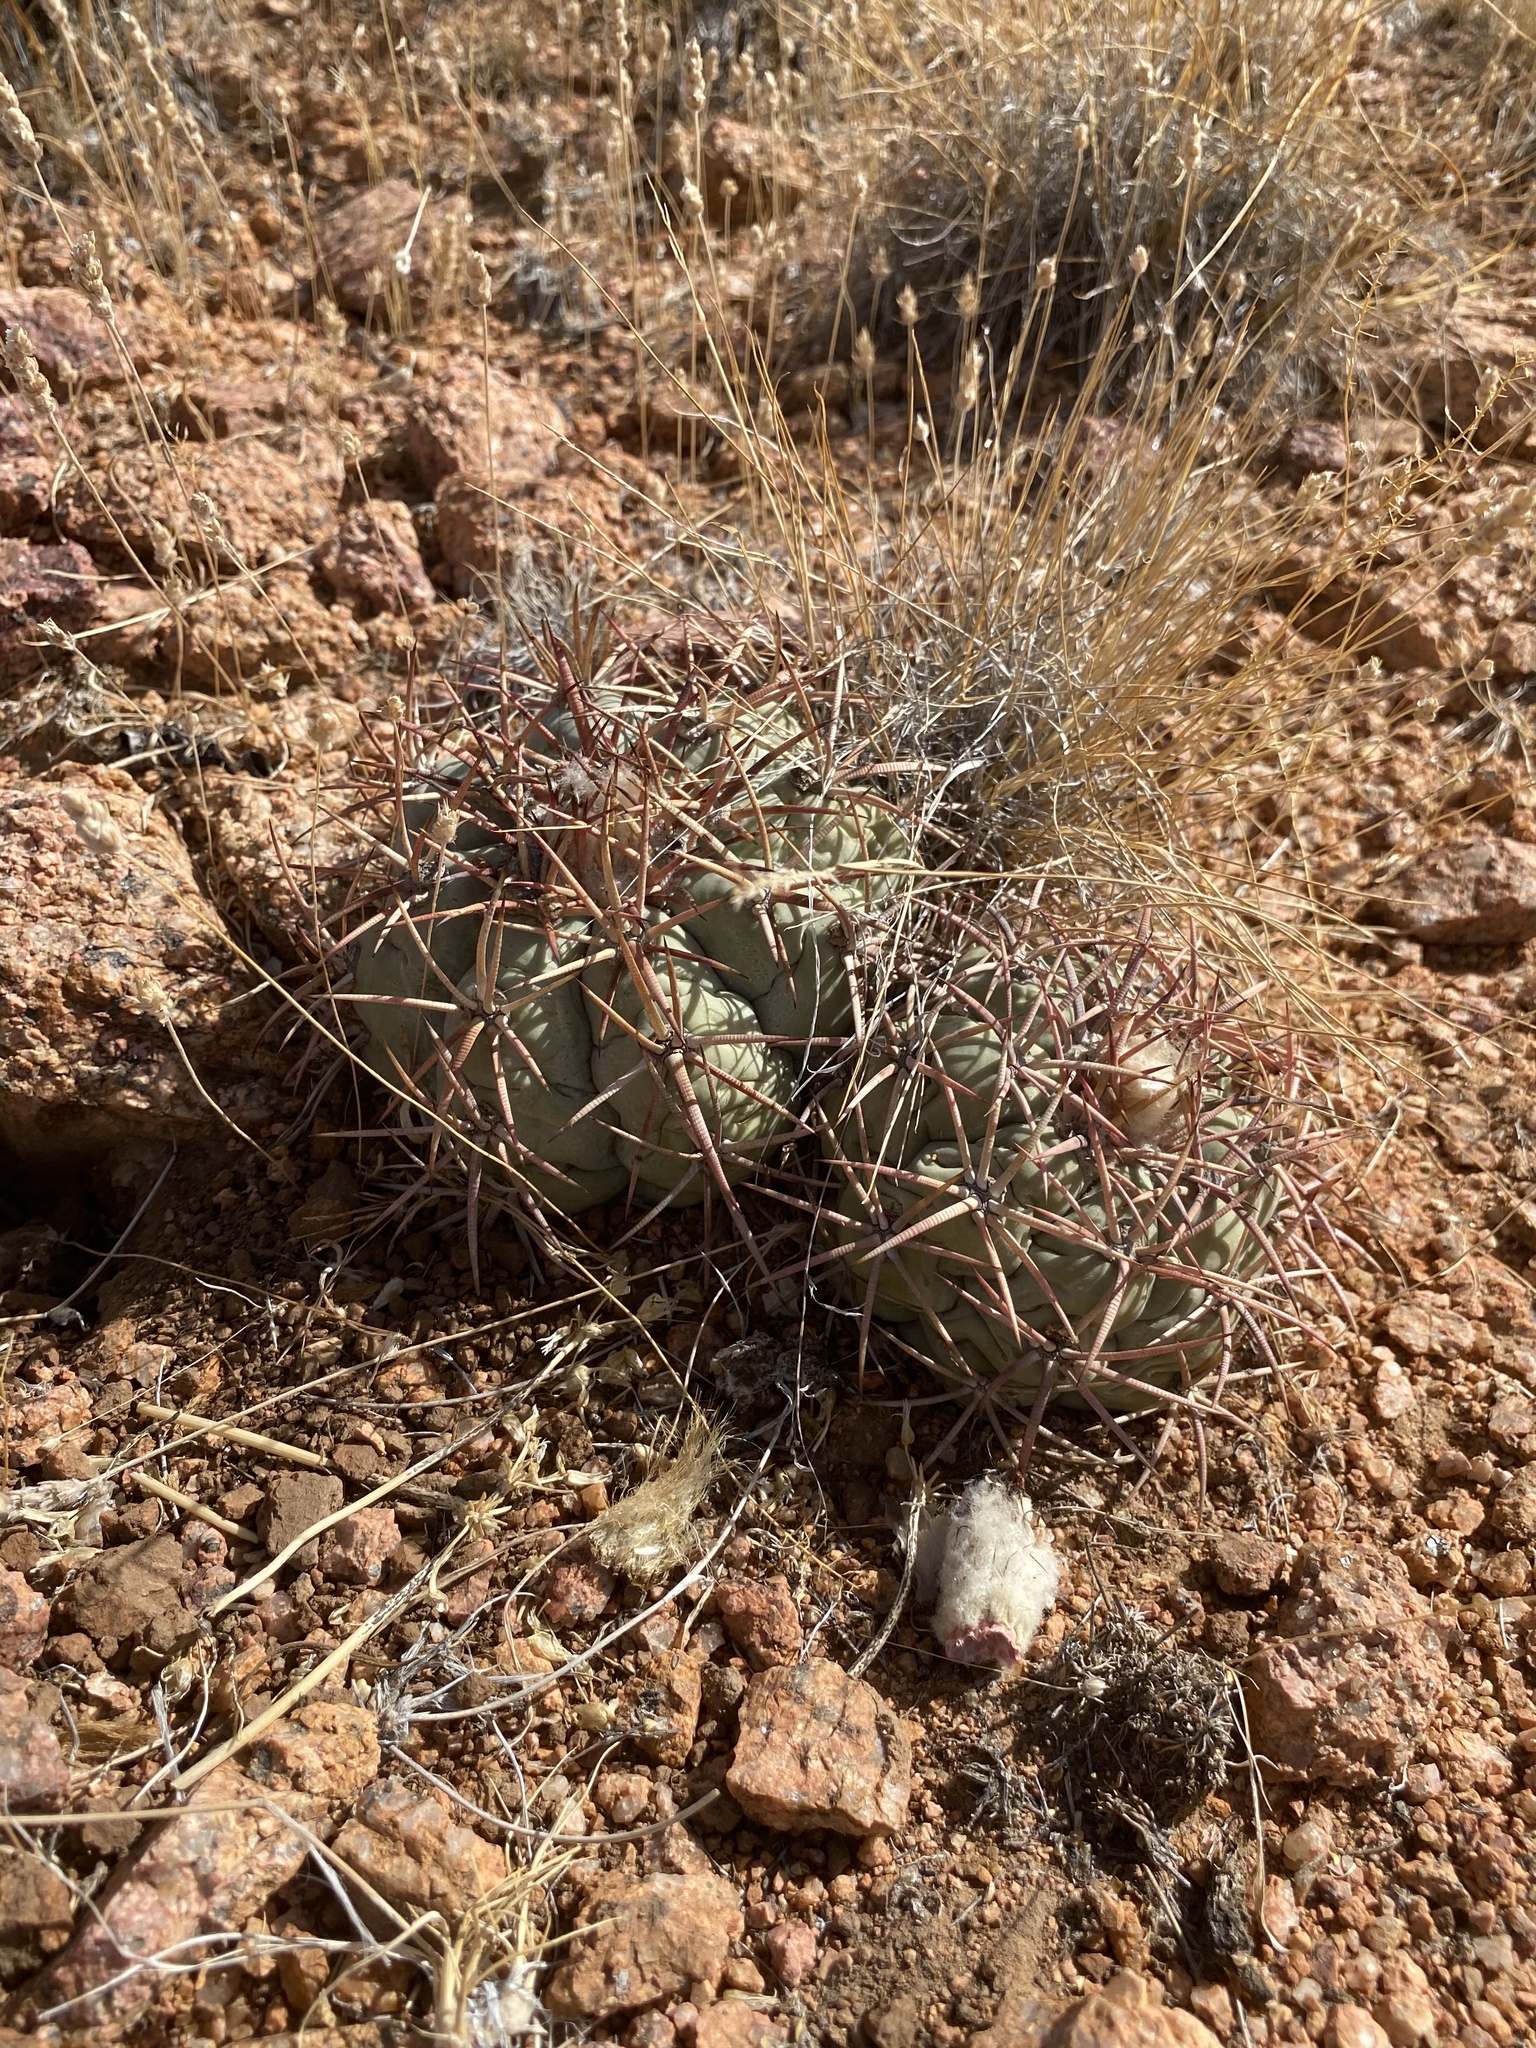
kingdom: Plantae
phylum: Tracheophyta
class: Magnoliopsida
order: Caryophyllales
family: Cactaceae
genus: Echinocactus
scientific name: Echinocactus horizonthalonius
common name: Devilshead
